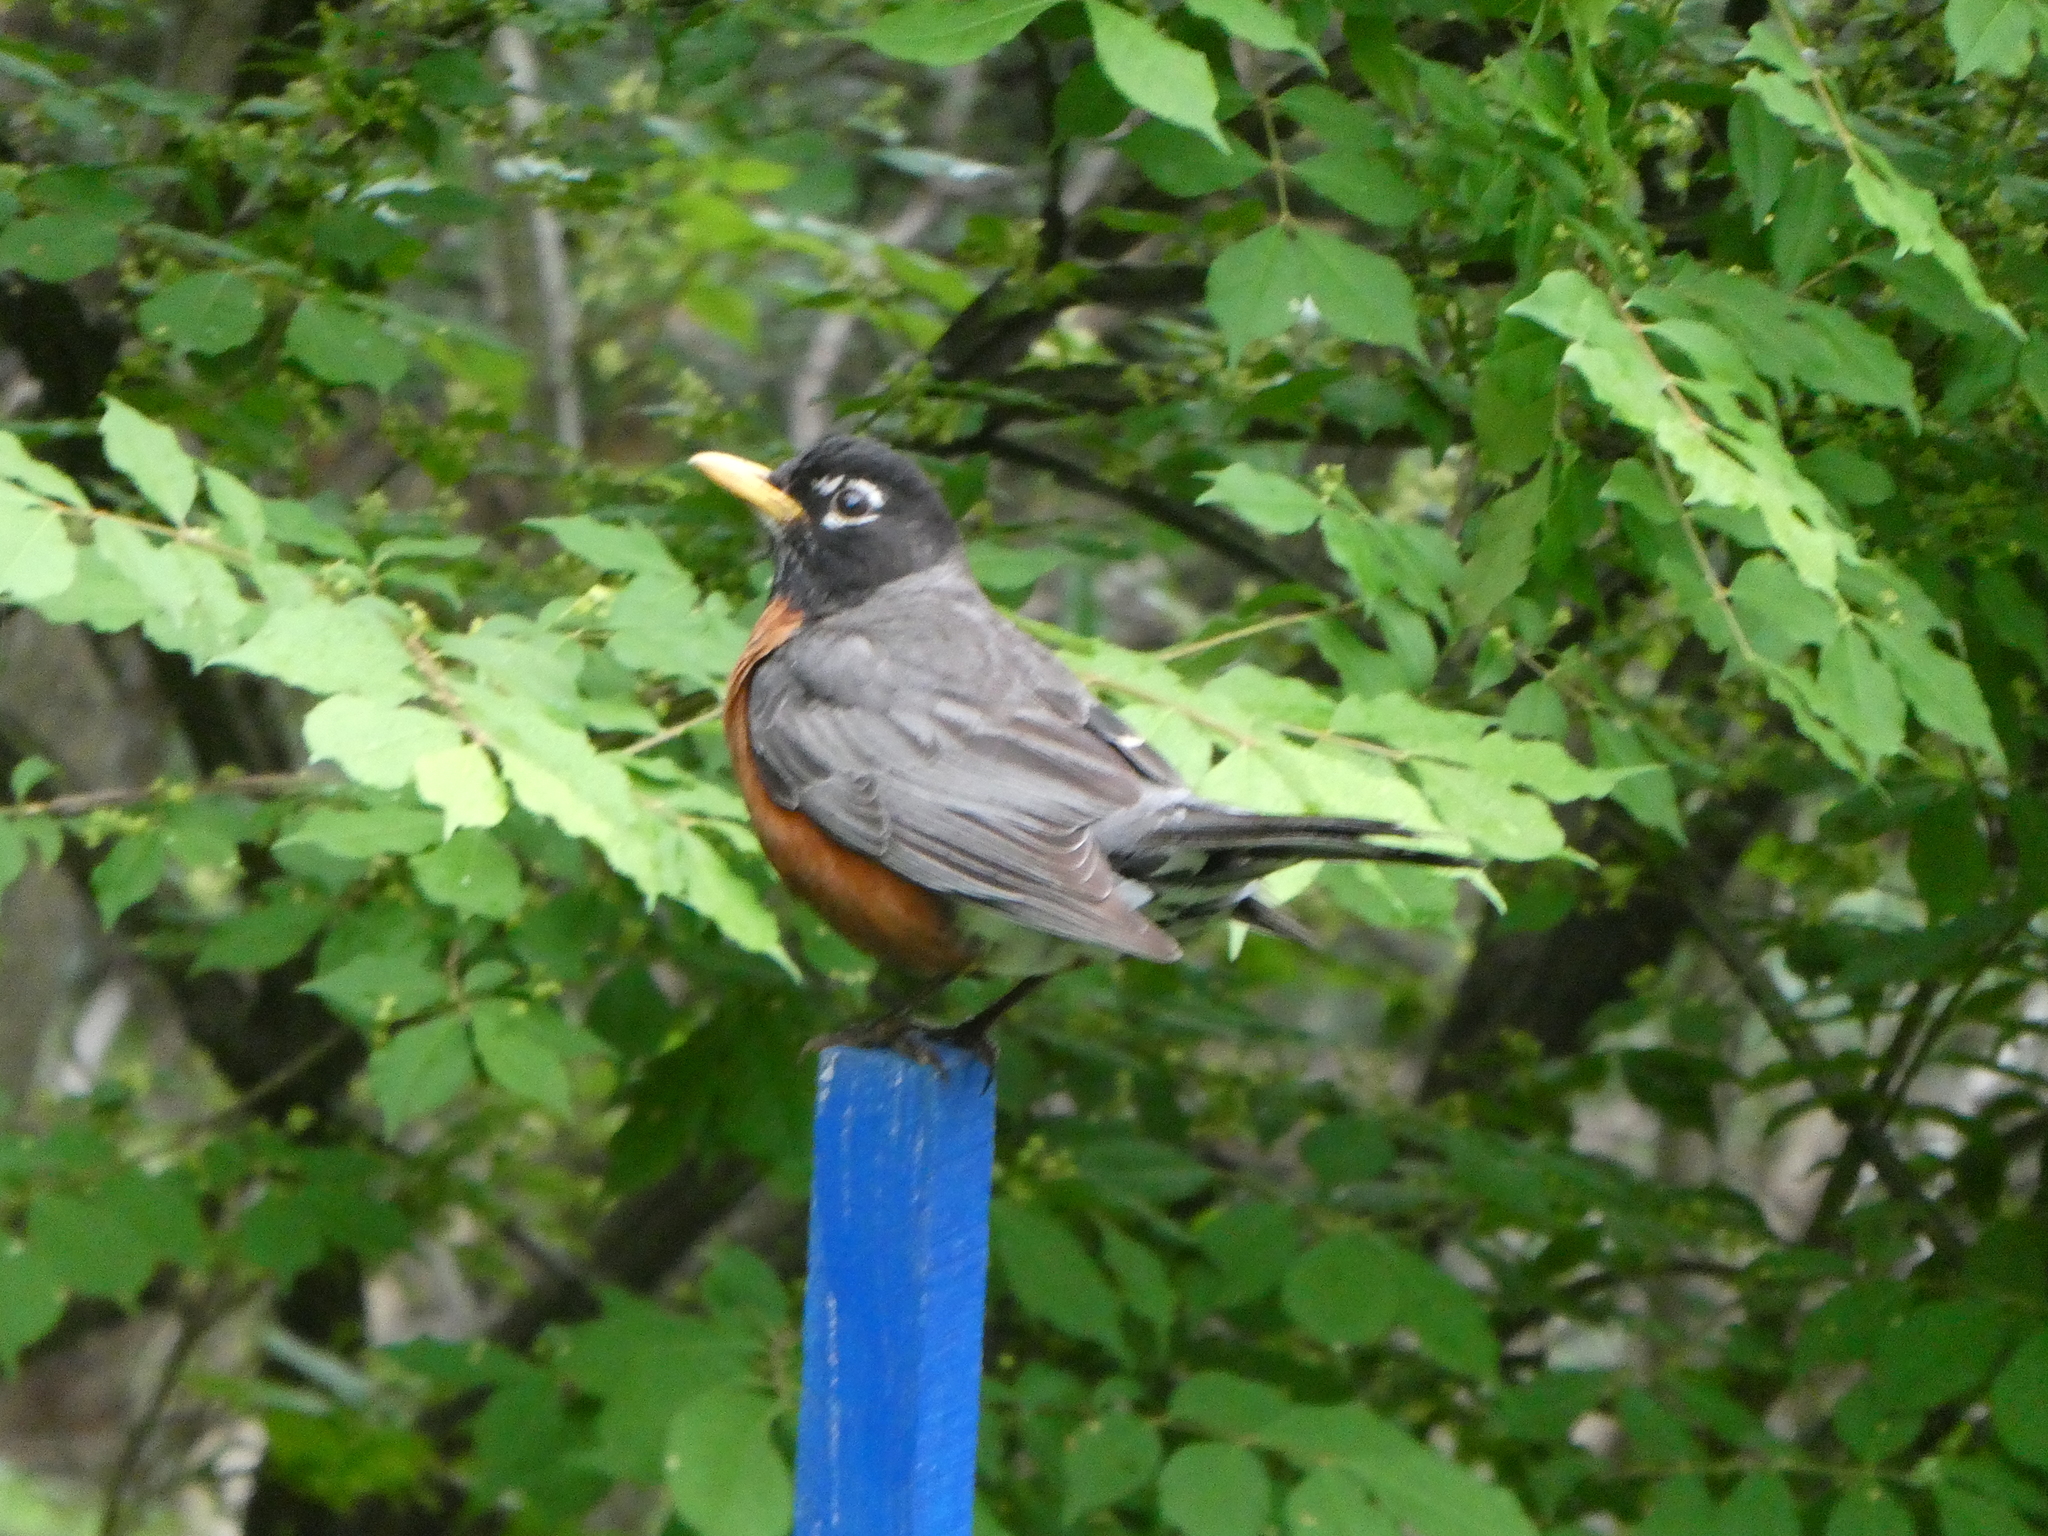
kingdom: Animalia
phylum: Chordata
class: Aves
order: Passeriformes
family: Turdidae
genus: Turdus
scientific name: Turdus migratorius
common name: American robin
